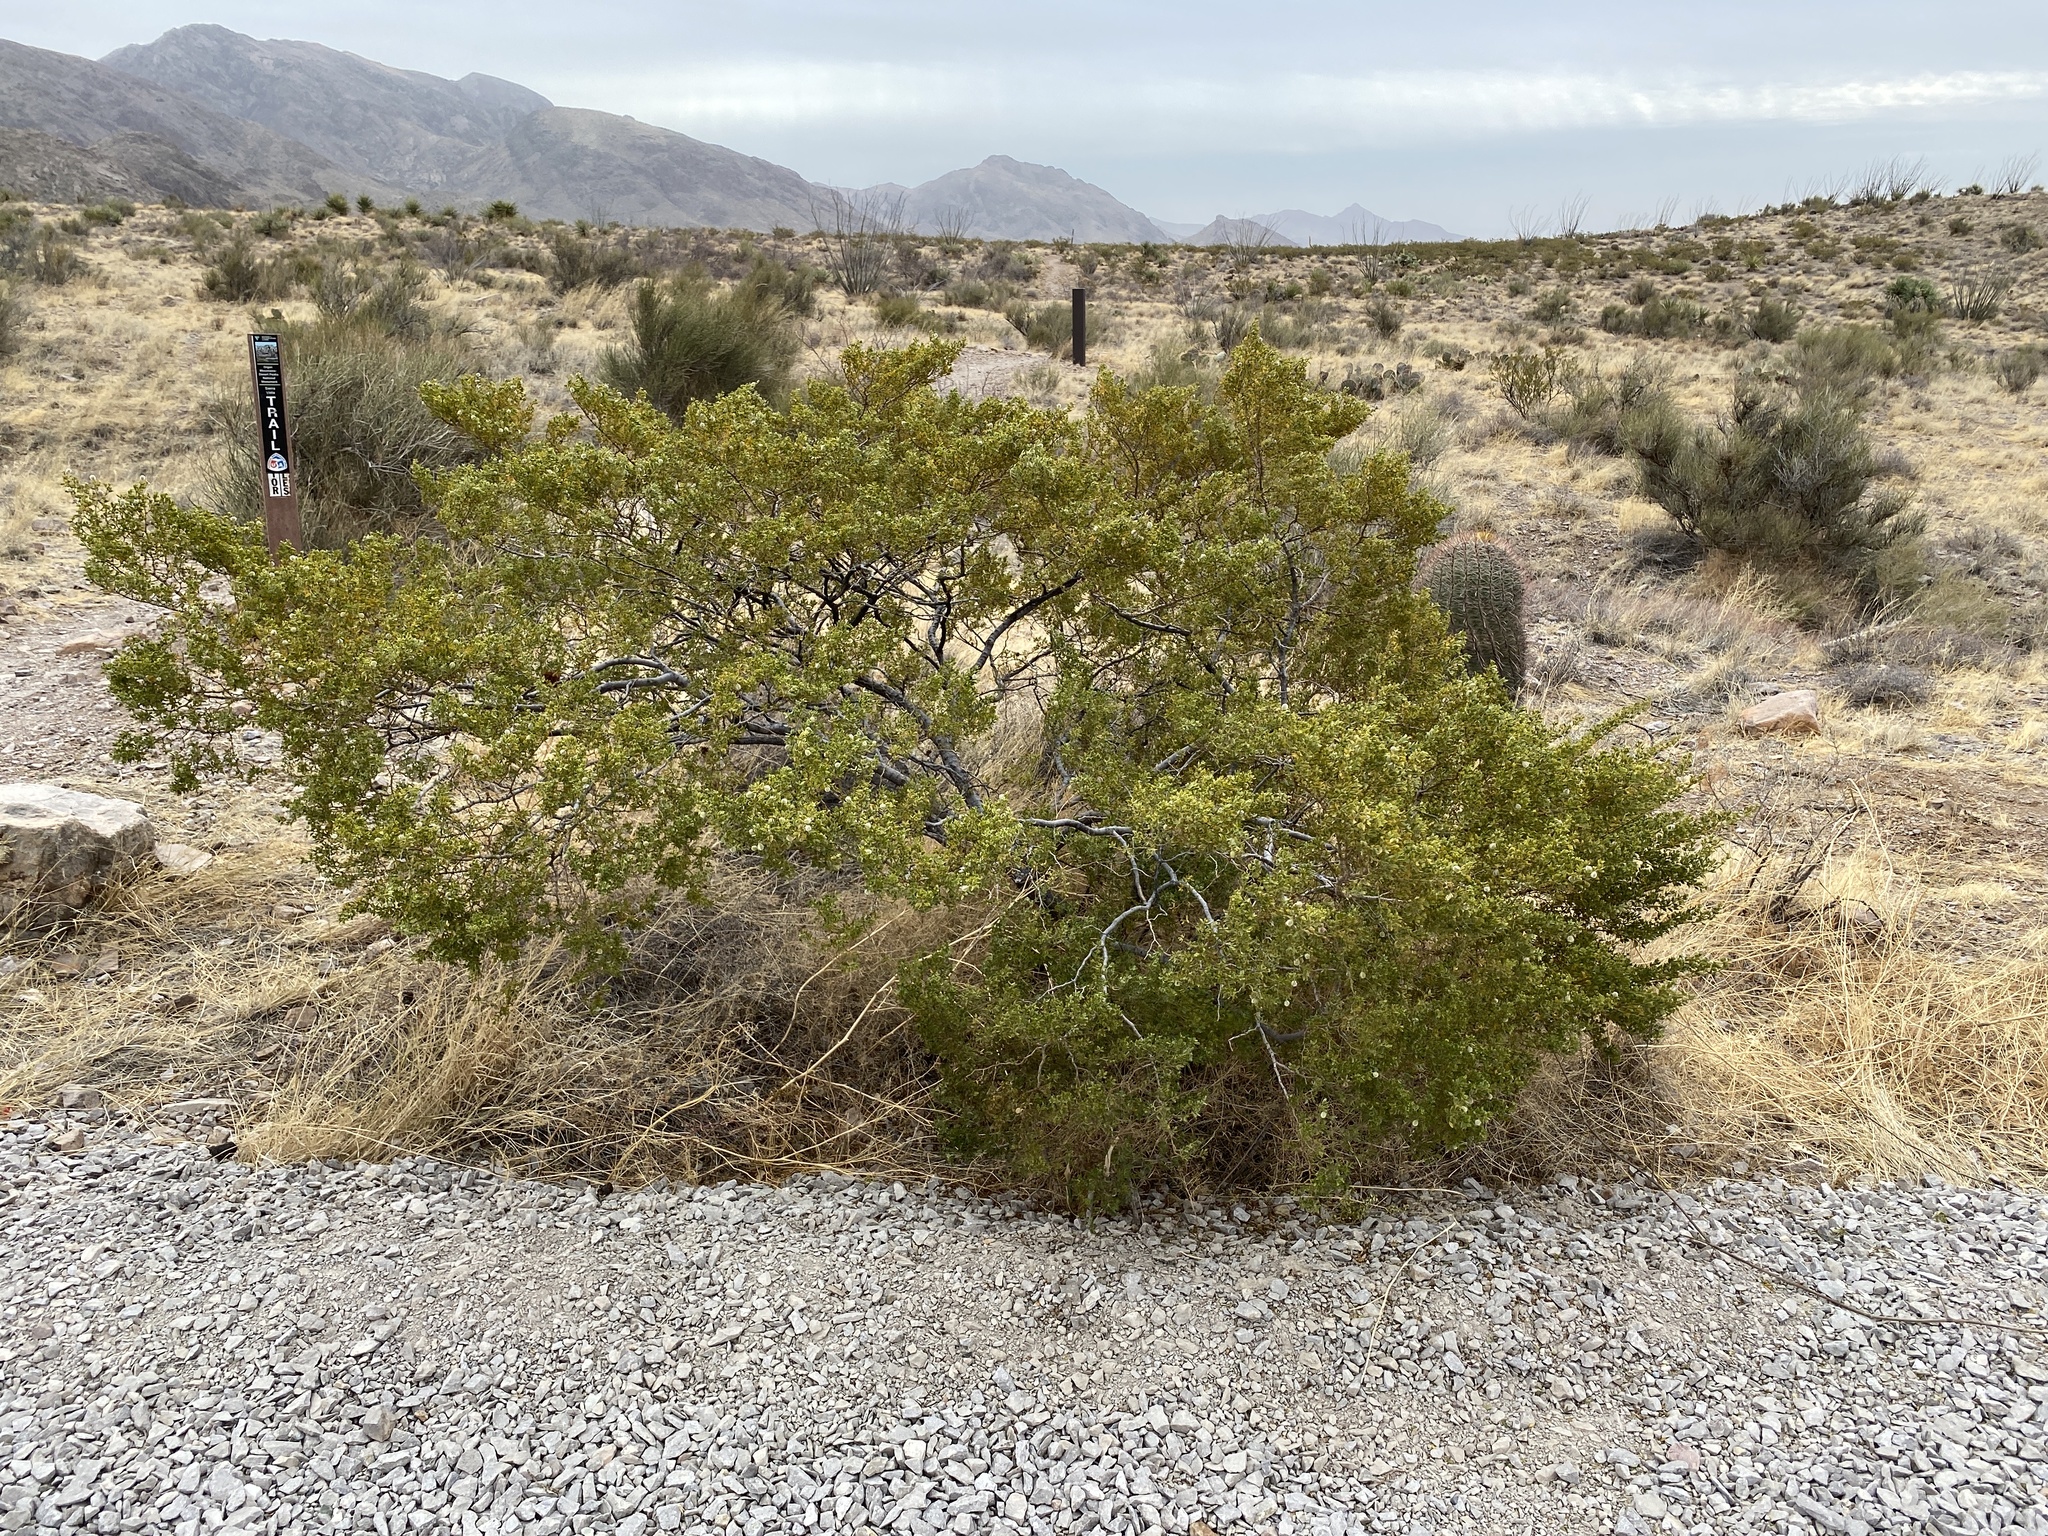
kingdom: Plantae
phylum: Tracheophyta
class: Magnoliopsida
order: Zygophyllales
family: Zygophyllaceae
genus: Larrea
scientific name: Larrea tridentata
